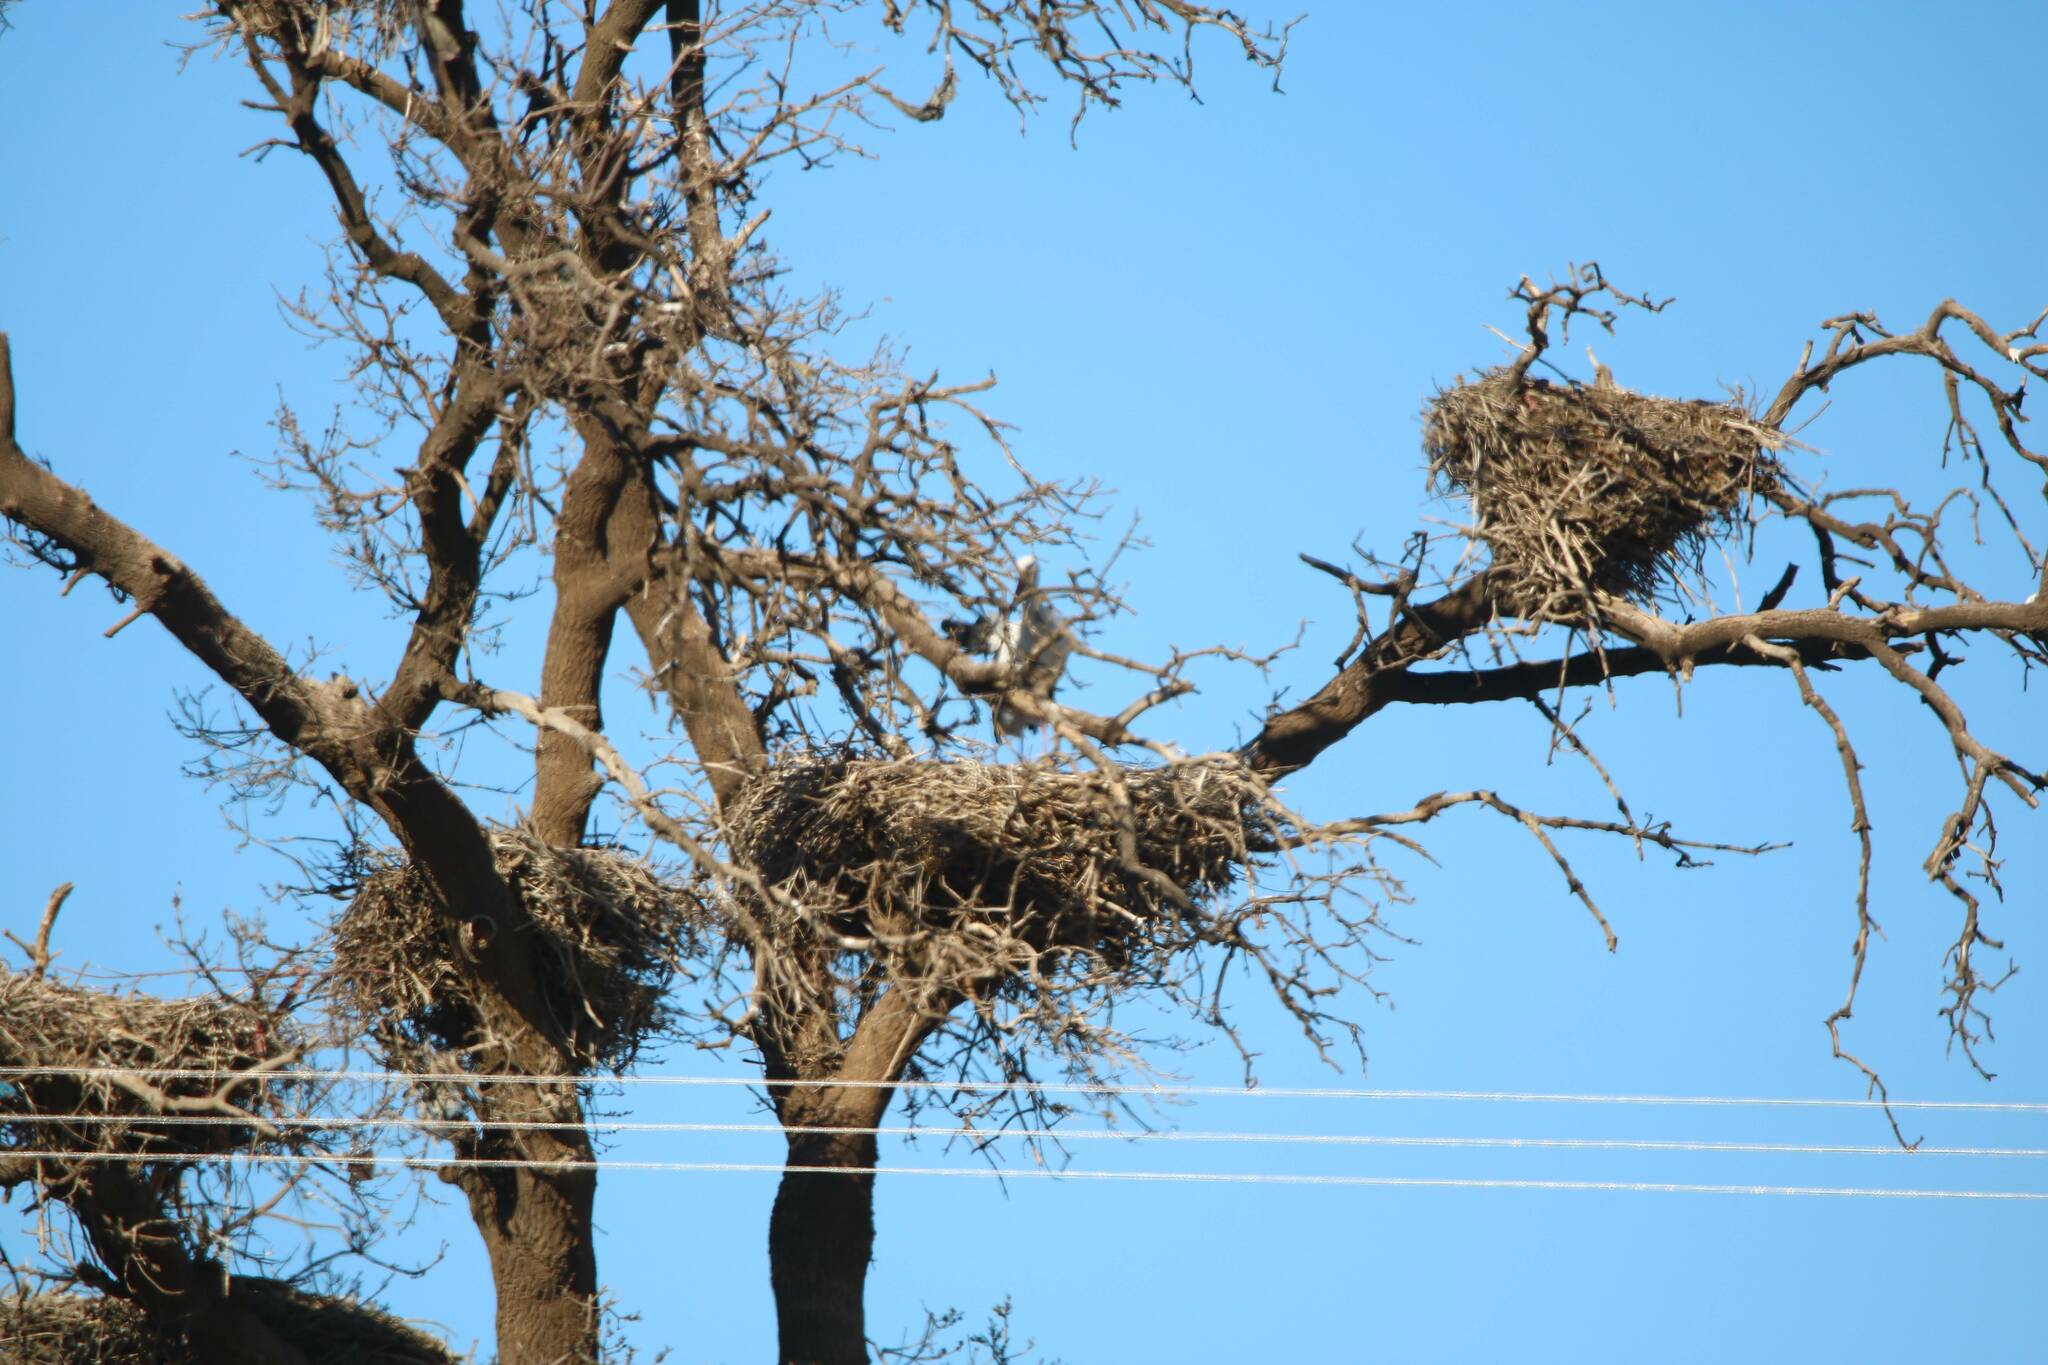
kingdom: Animalia
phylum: Chordata
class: Aves
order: Ciconiiformes
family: Ciconiidae
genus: Ciconia
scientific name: Ciconia ciconia
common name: White stork
